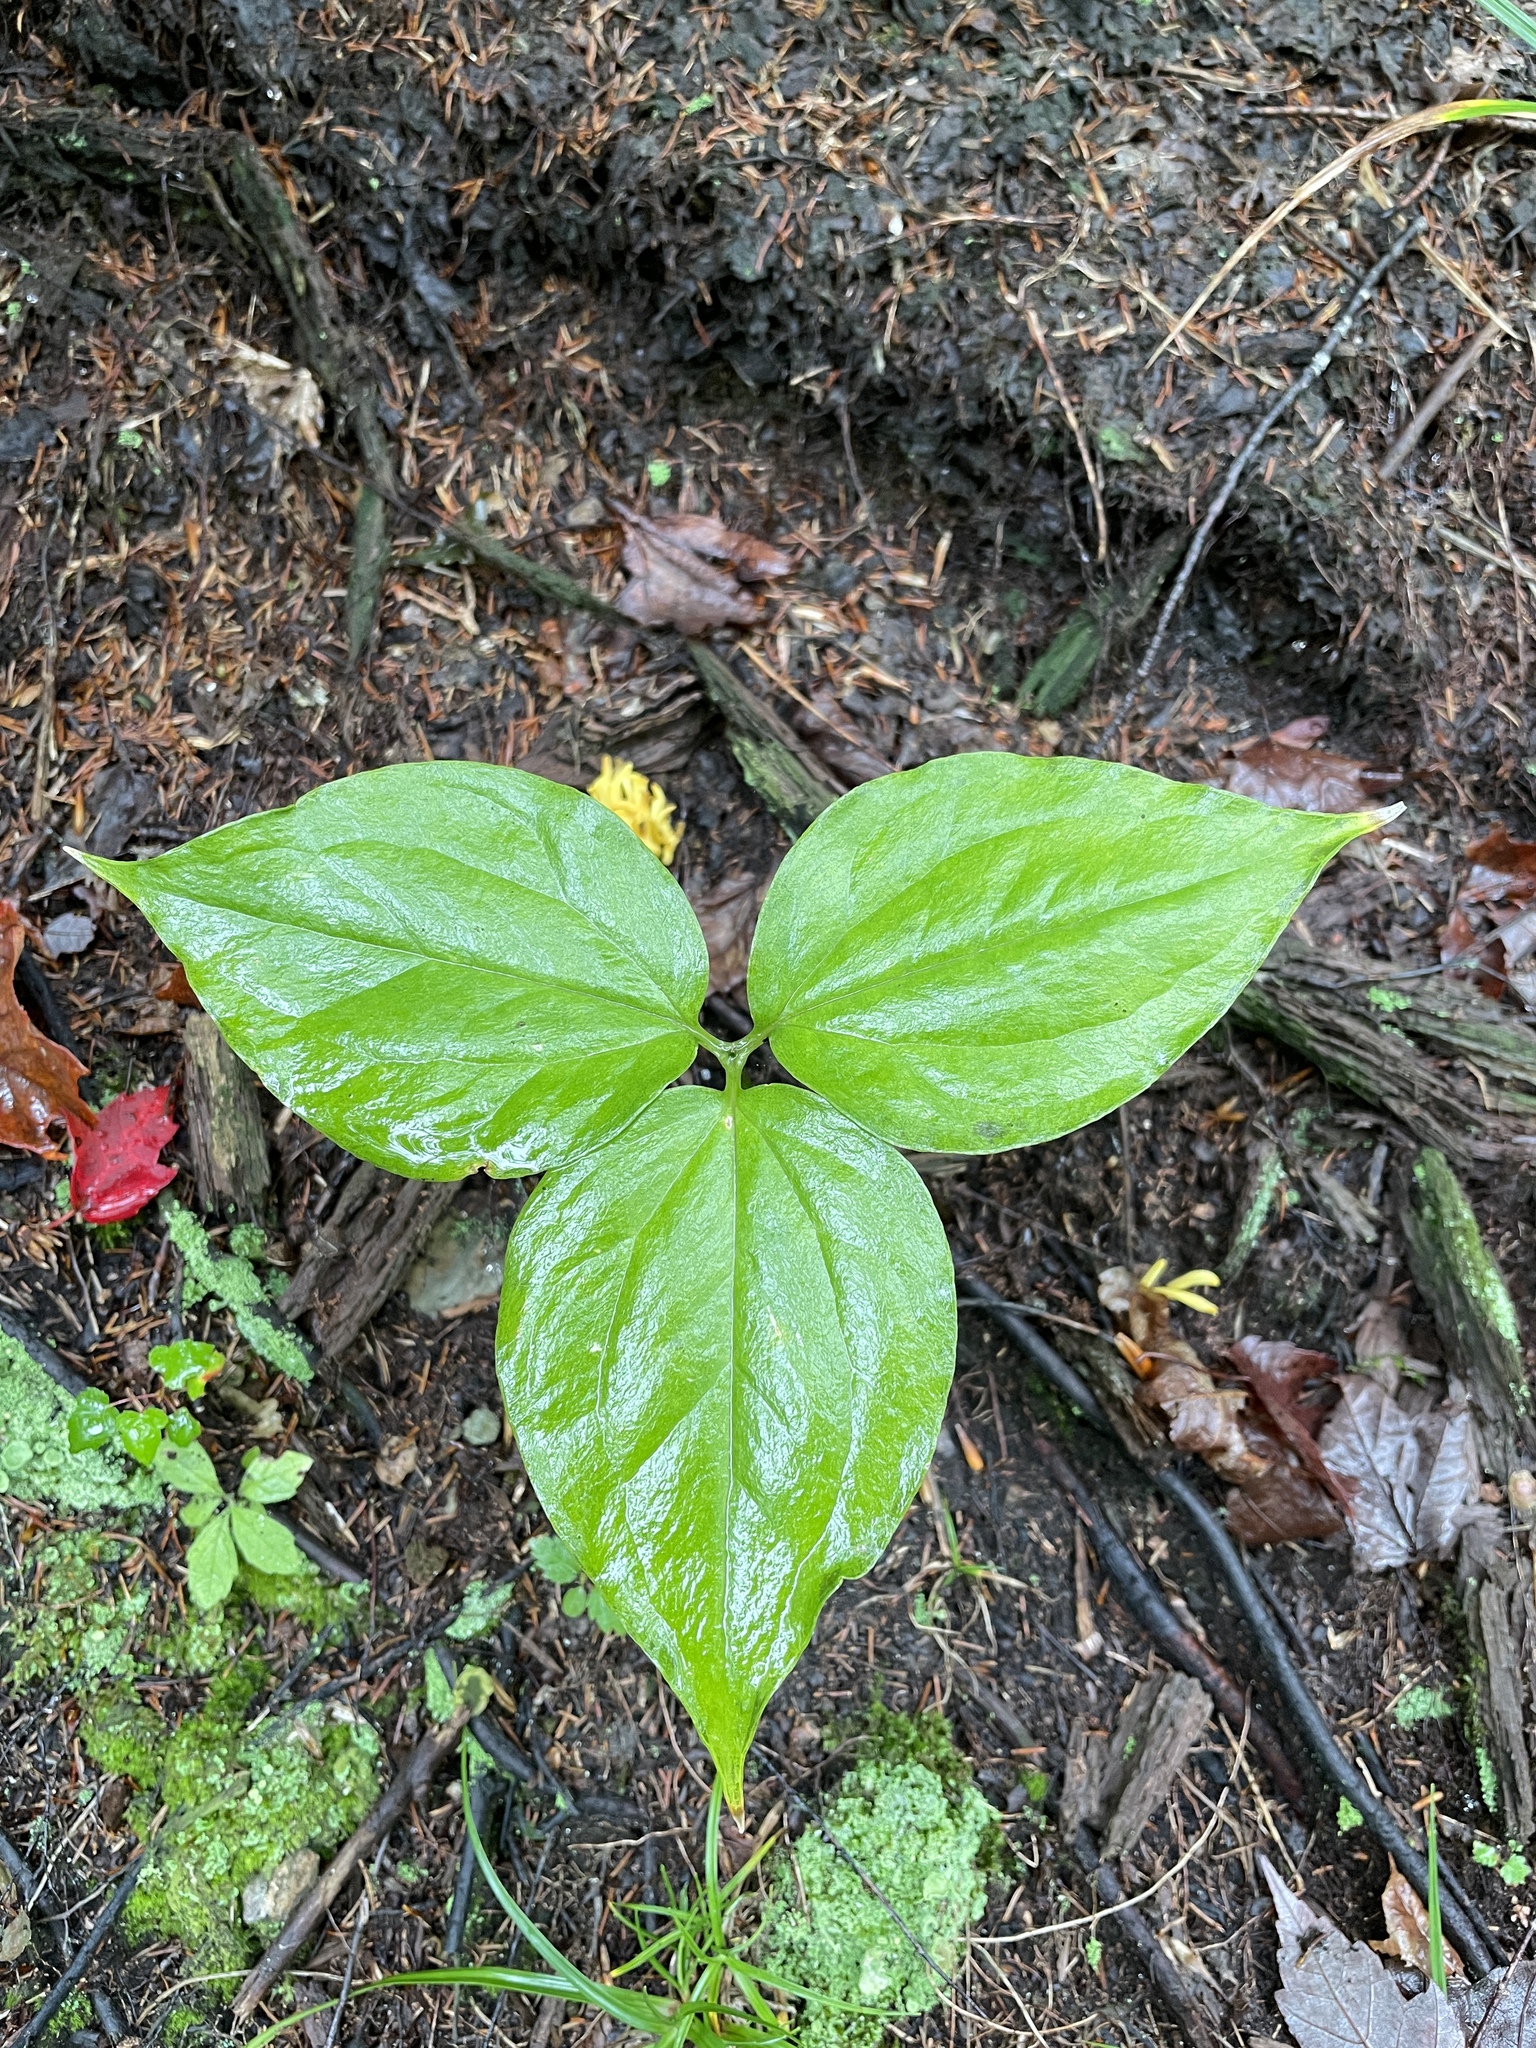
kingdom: Plantae
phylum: Tracheophyta
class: Liliopsida
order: Liliales
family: Melanthiaceae
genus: Trillium
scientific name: Trillium undulatum
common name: Paint trillium
